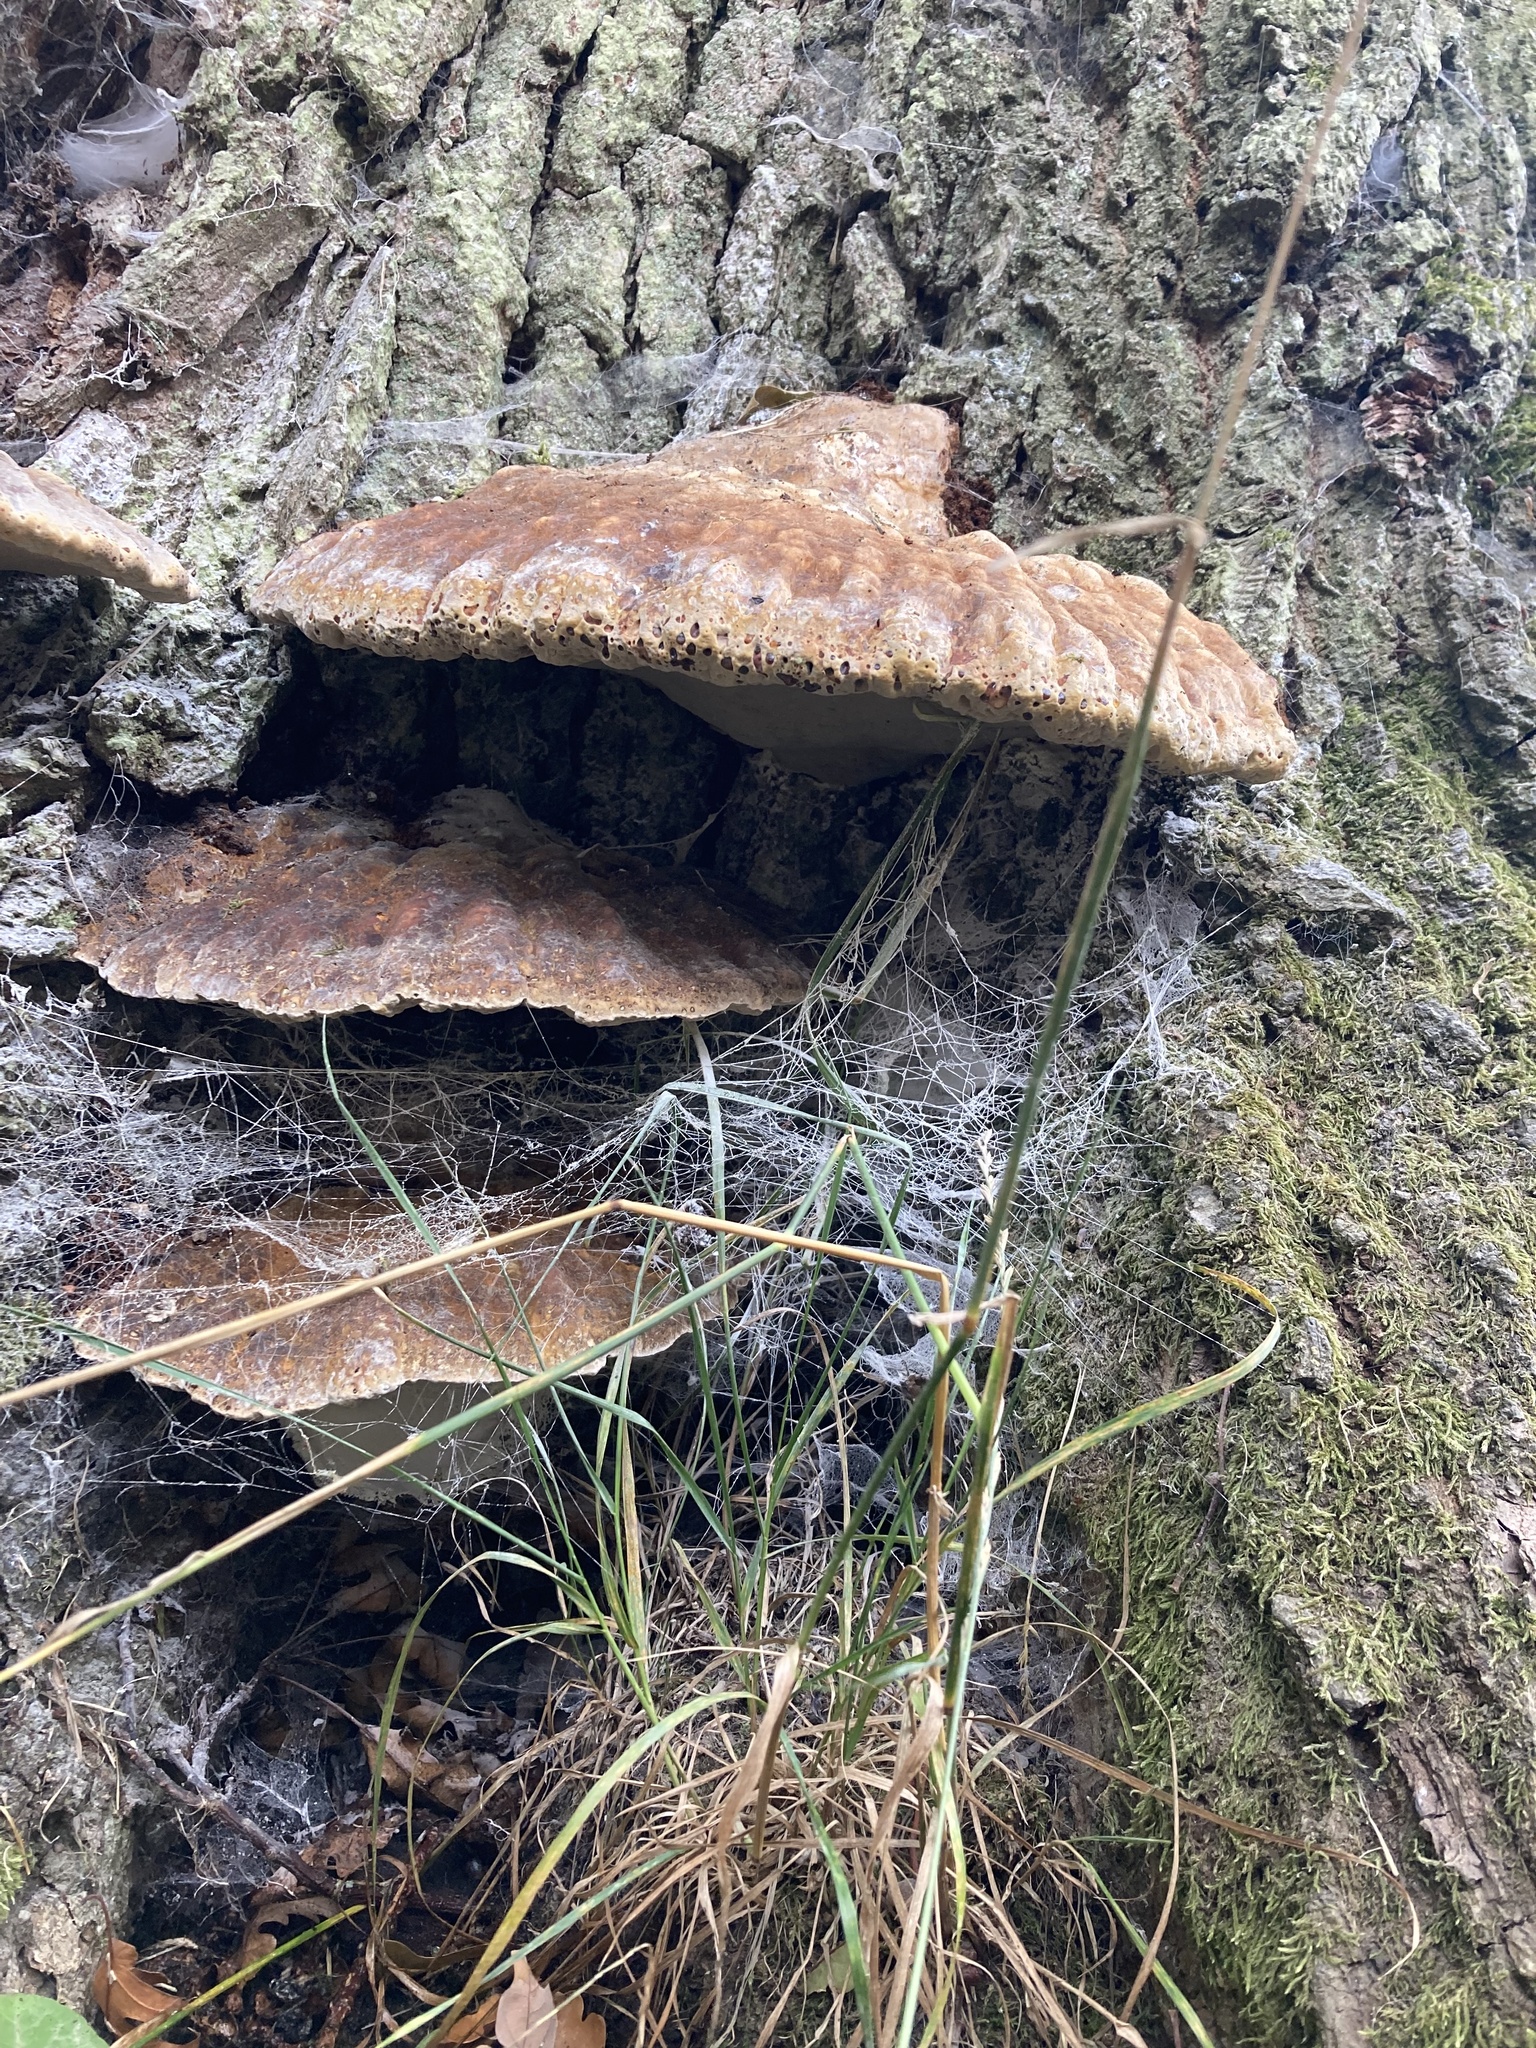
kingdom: Fungi
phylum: Basidiomycota
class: Agaricomycetes
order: Hymenochaetales
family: Hymenochaetaceae
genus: Pseudoinonotus
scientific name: Pseudoinonotus dryadeus
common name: Oak bracket
